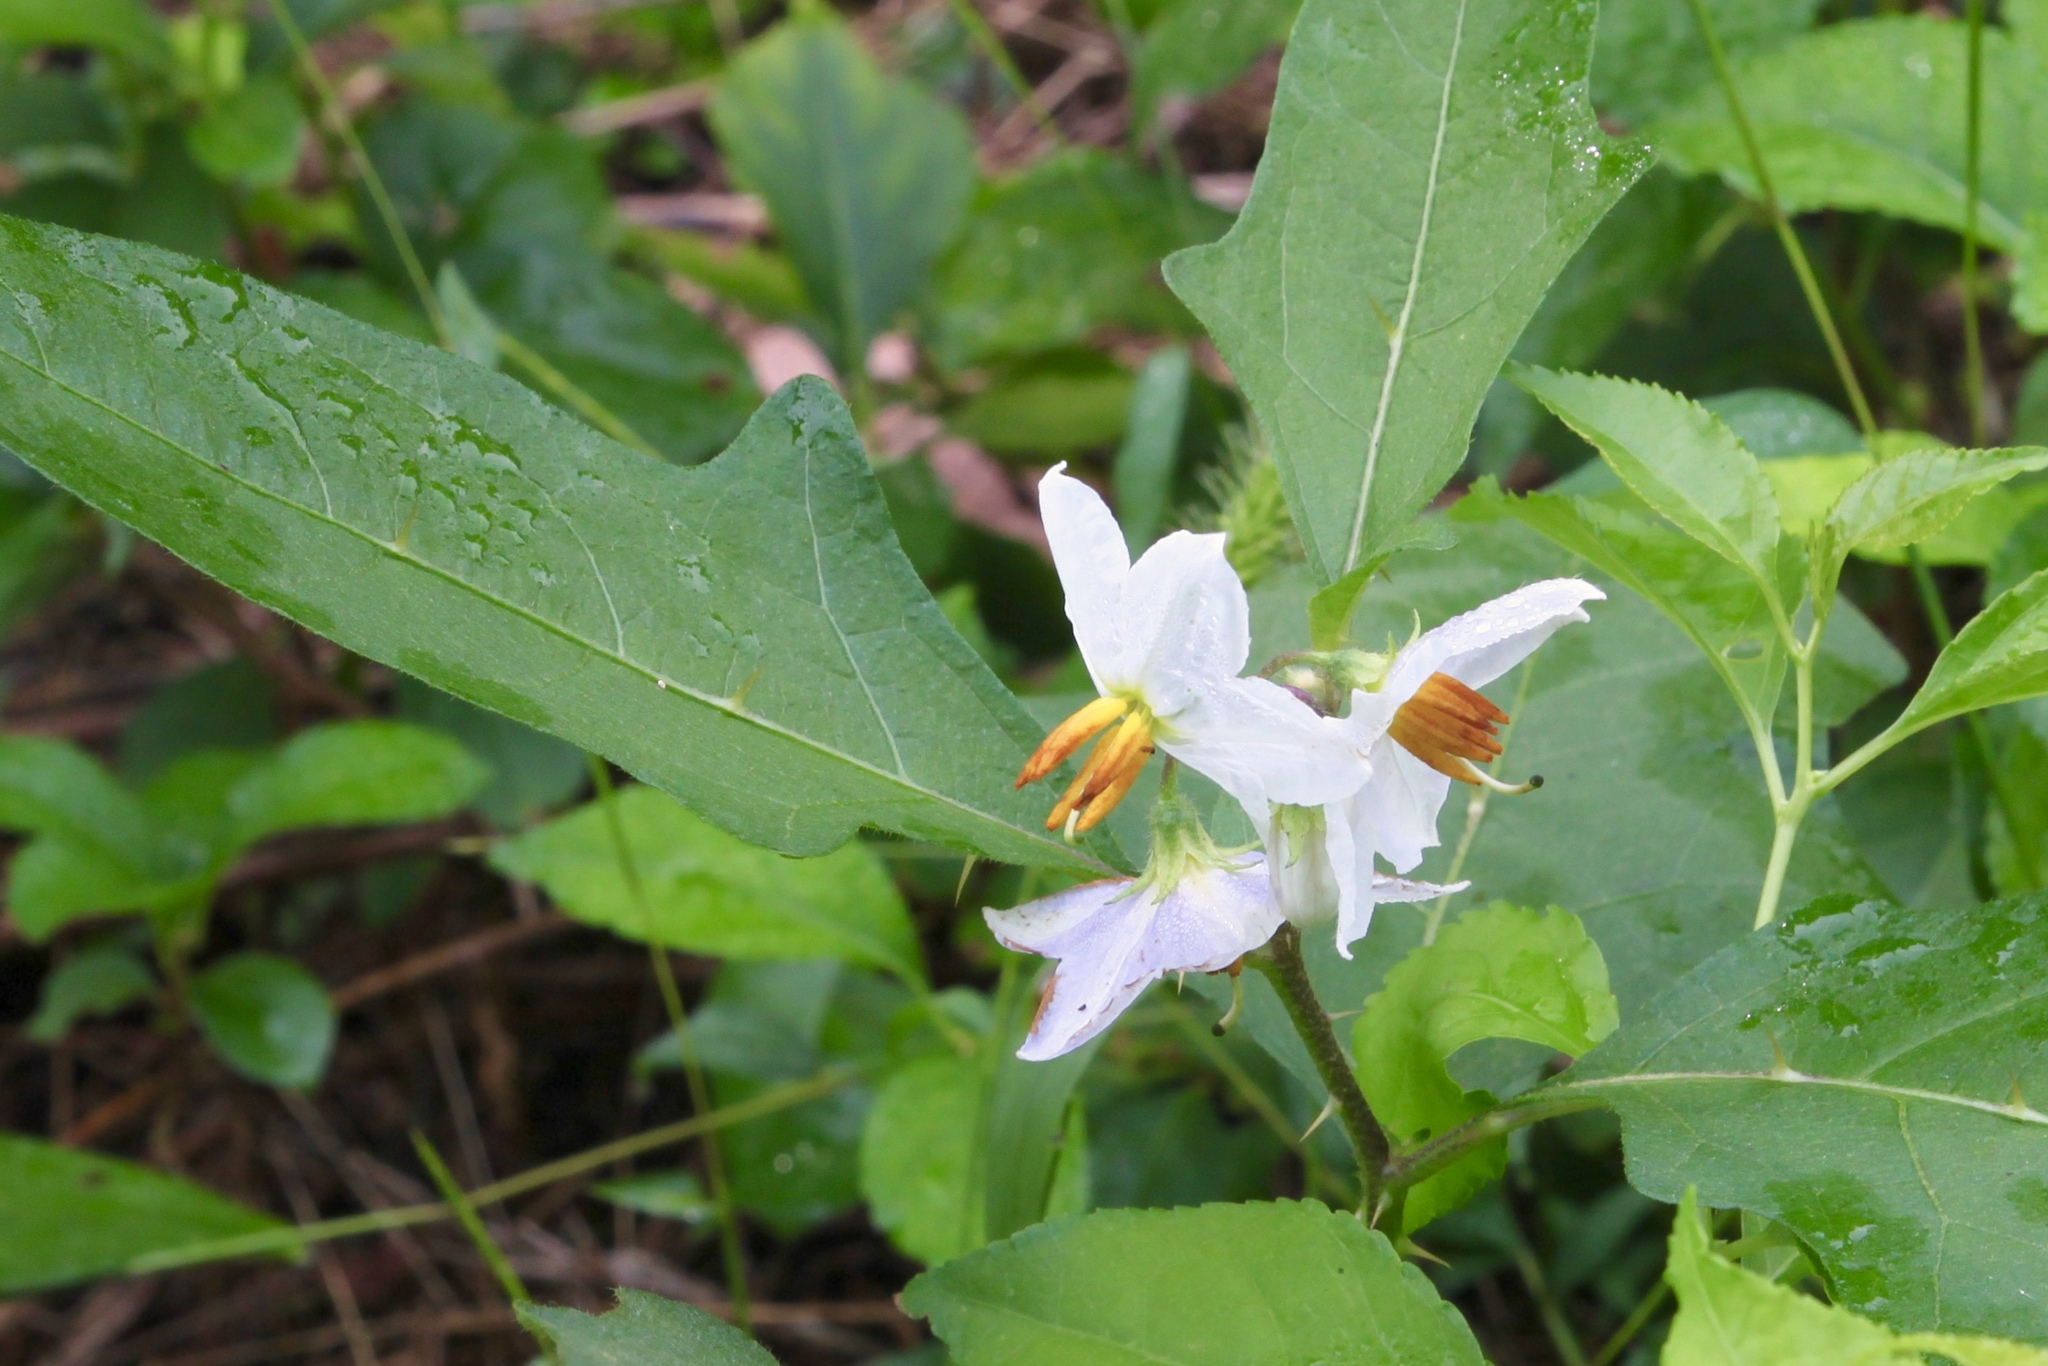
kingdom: Plantae
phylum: Tracheophyta
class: Magnoliopsida
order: Solanales
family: Solanaceae
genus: Solanum
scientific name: Solanum carolinense
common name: Horse-nettle
